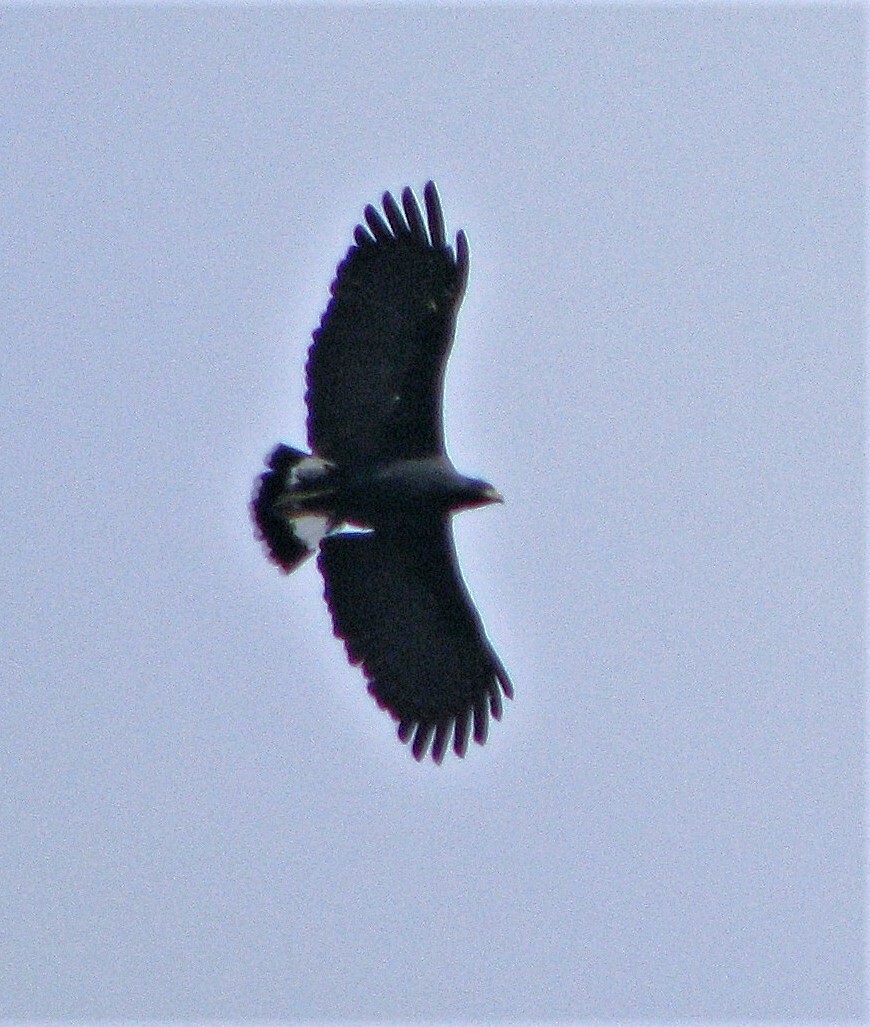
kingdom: Animalia
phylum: Chordata
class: Aves
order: Accipitriformes
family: Accipitridae
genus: Buteogallus
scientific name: Buteogallus urubitinga
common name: Great black hawk
